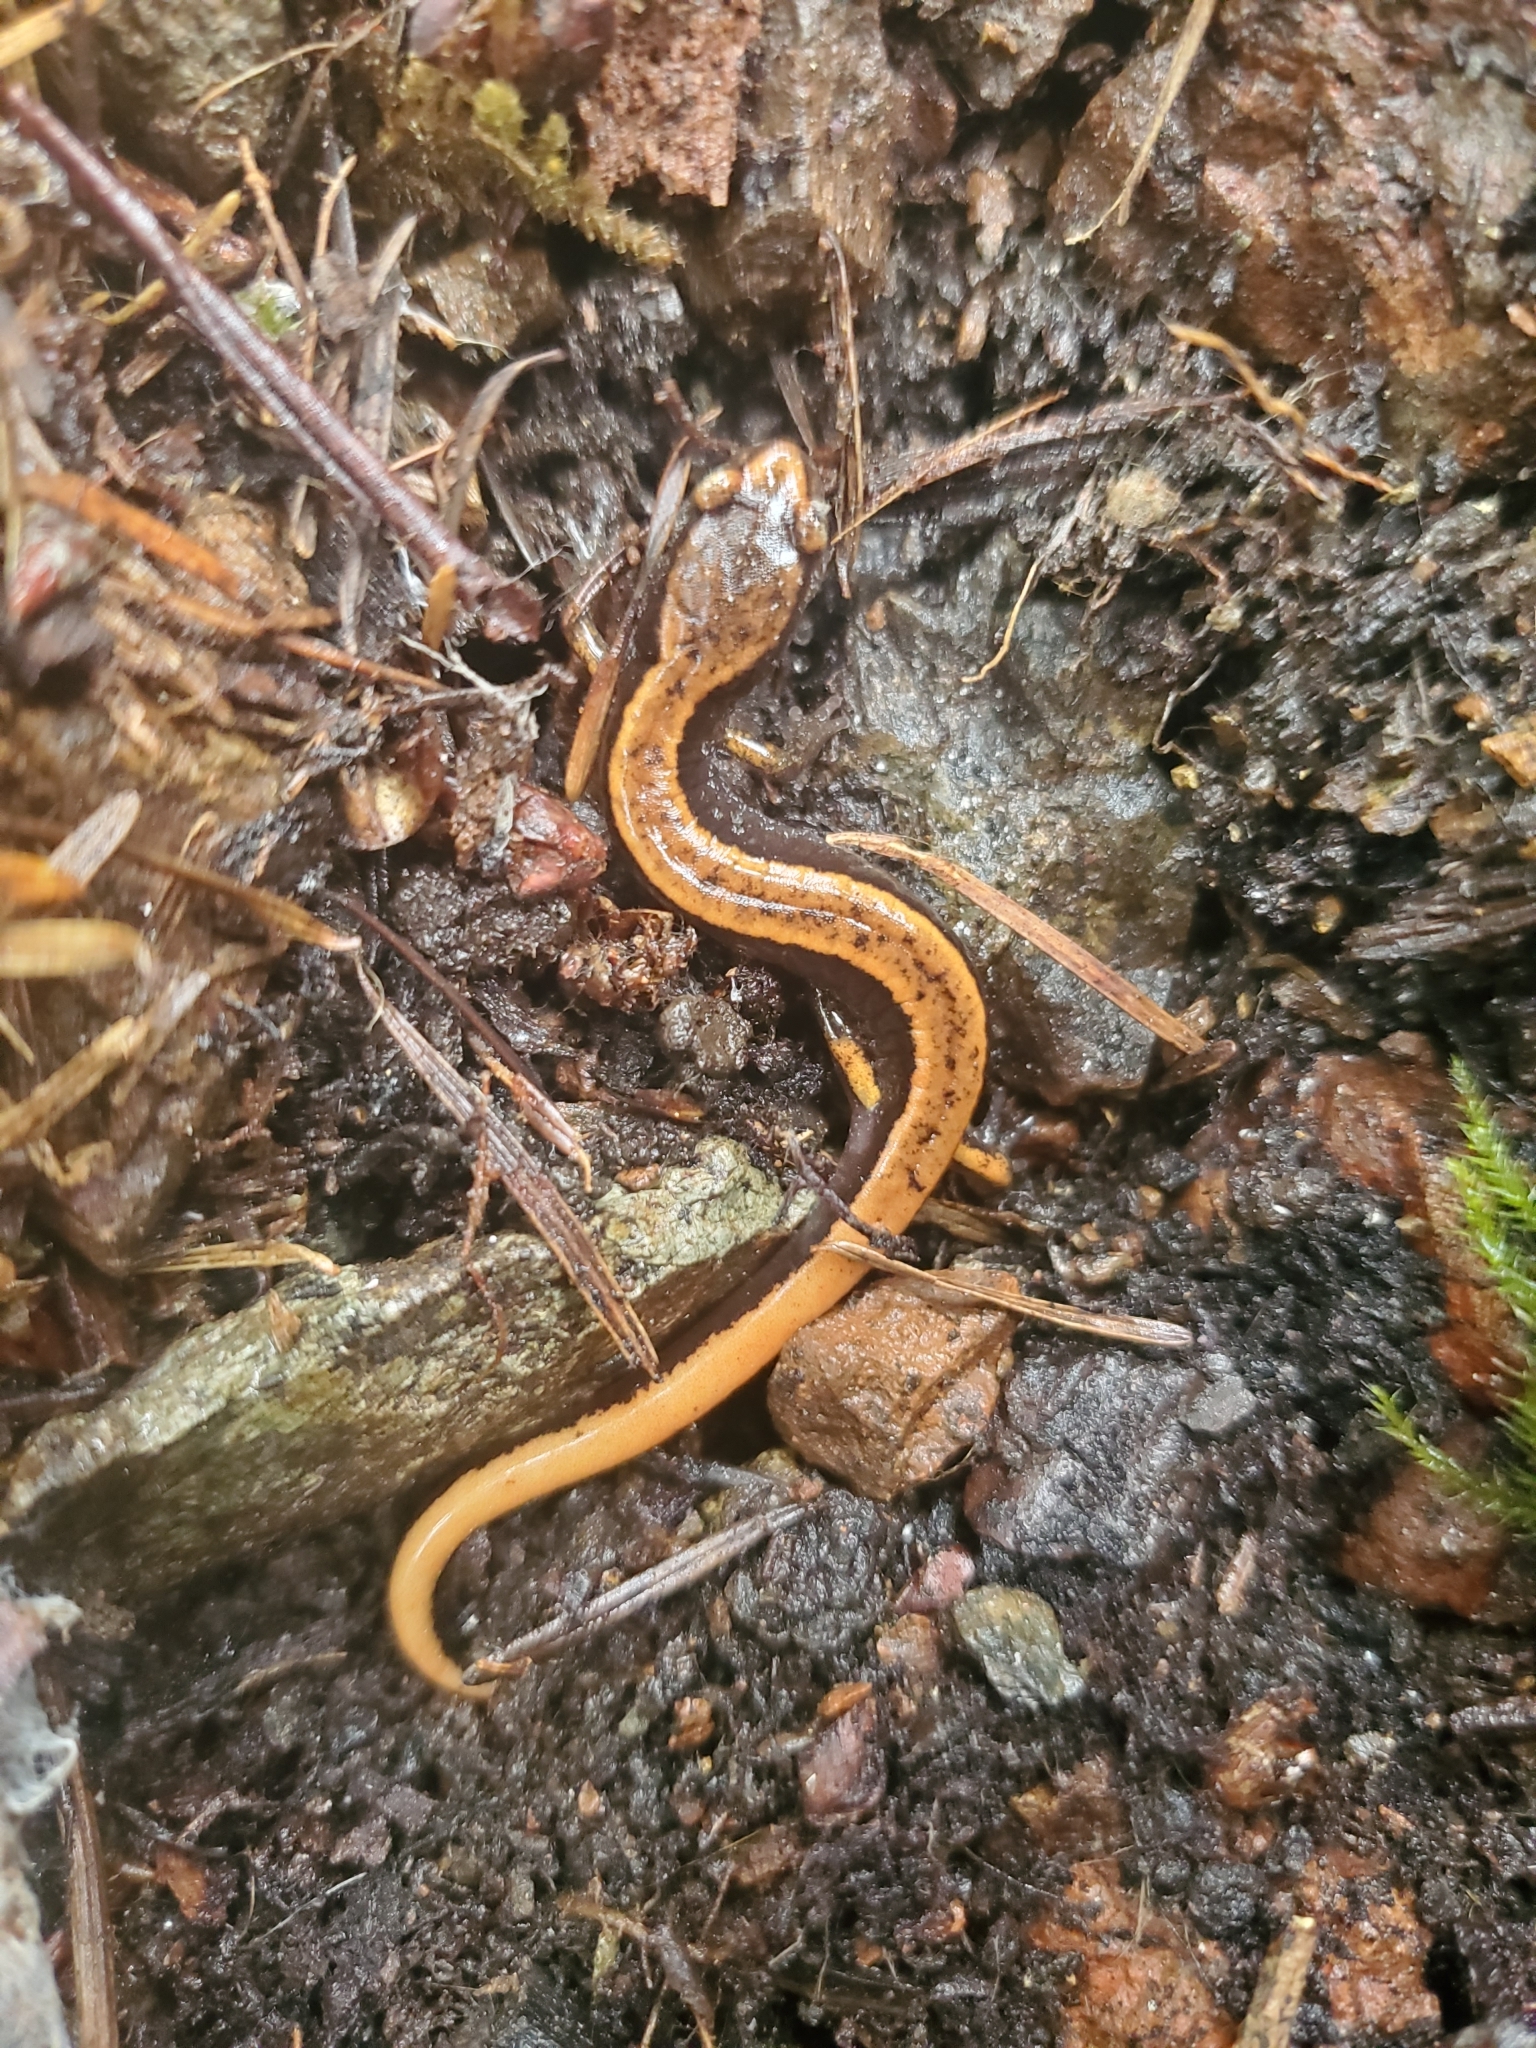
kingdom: Animalia
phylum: Chordata
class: Amphibia
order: Caudata
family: Plethodontidae
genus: Plethodon
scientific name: Plethodon vehiculum
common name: Western red-backed salamander
